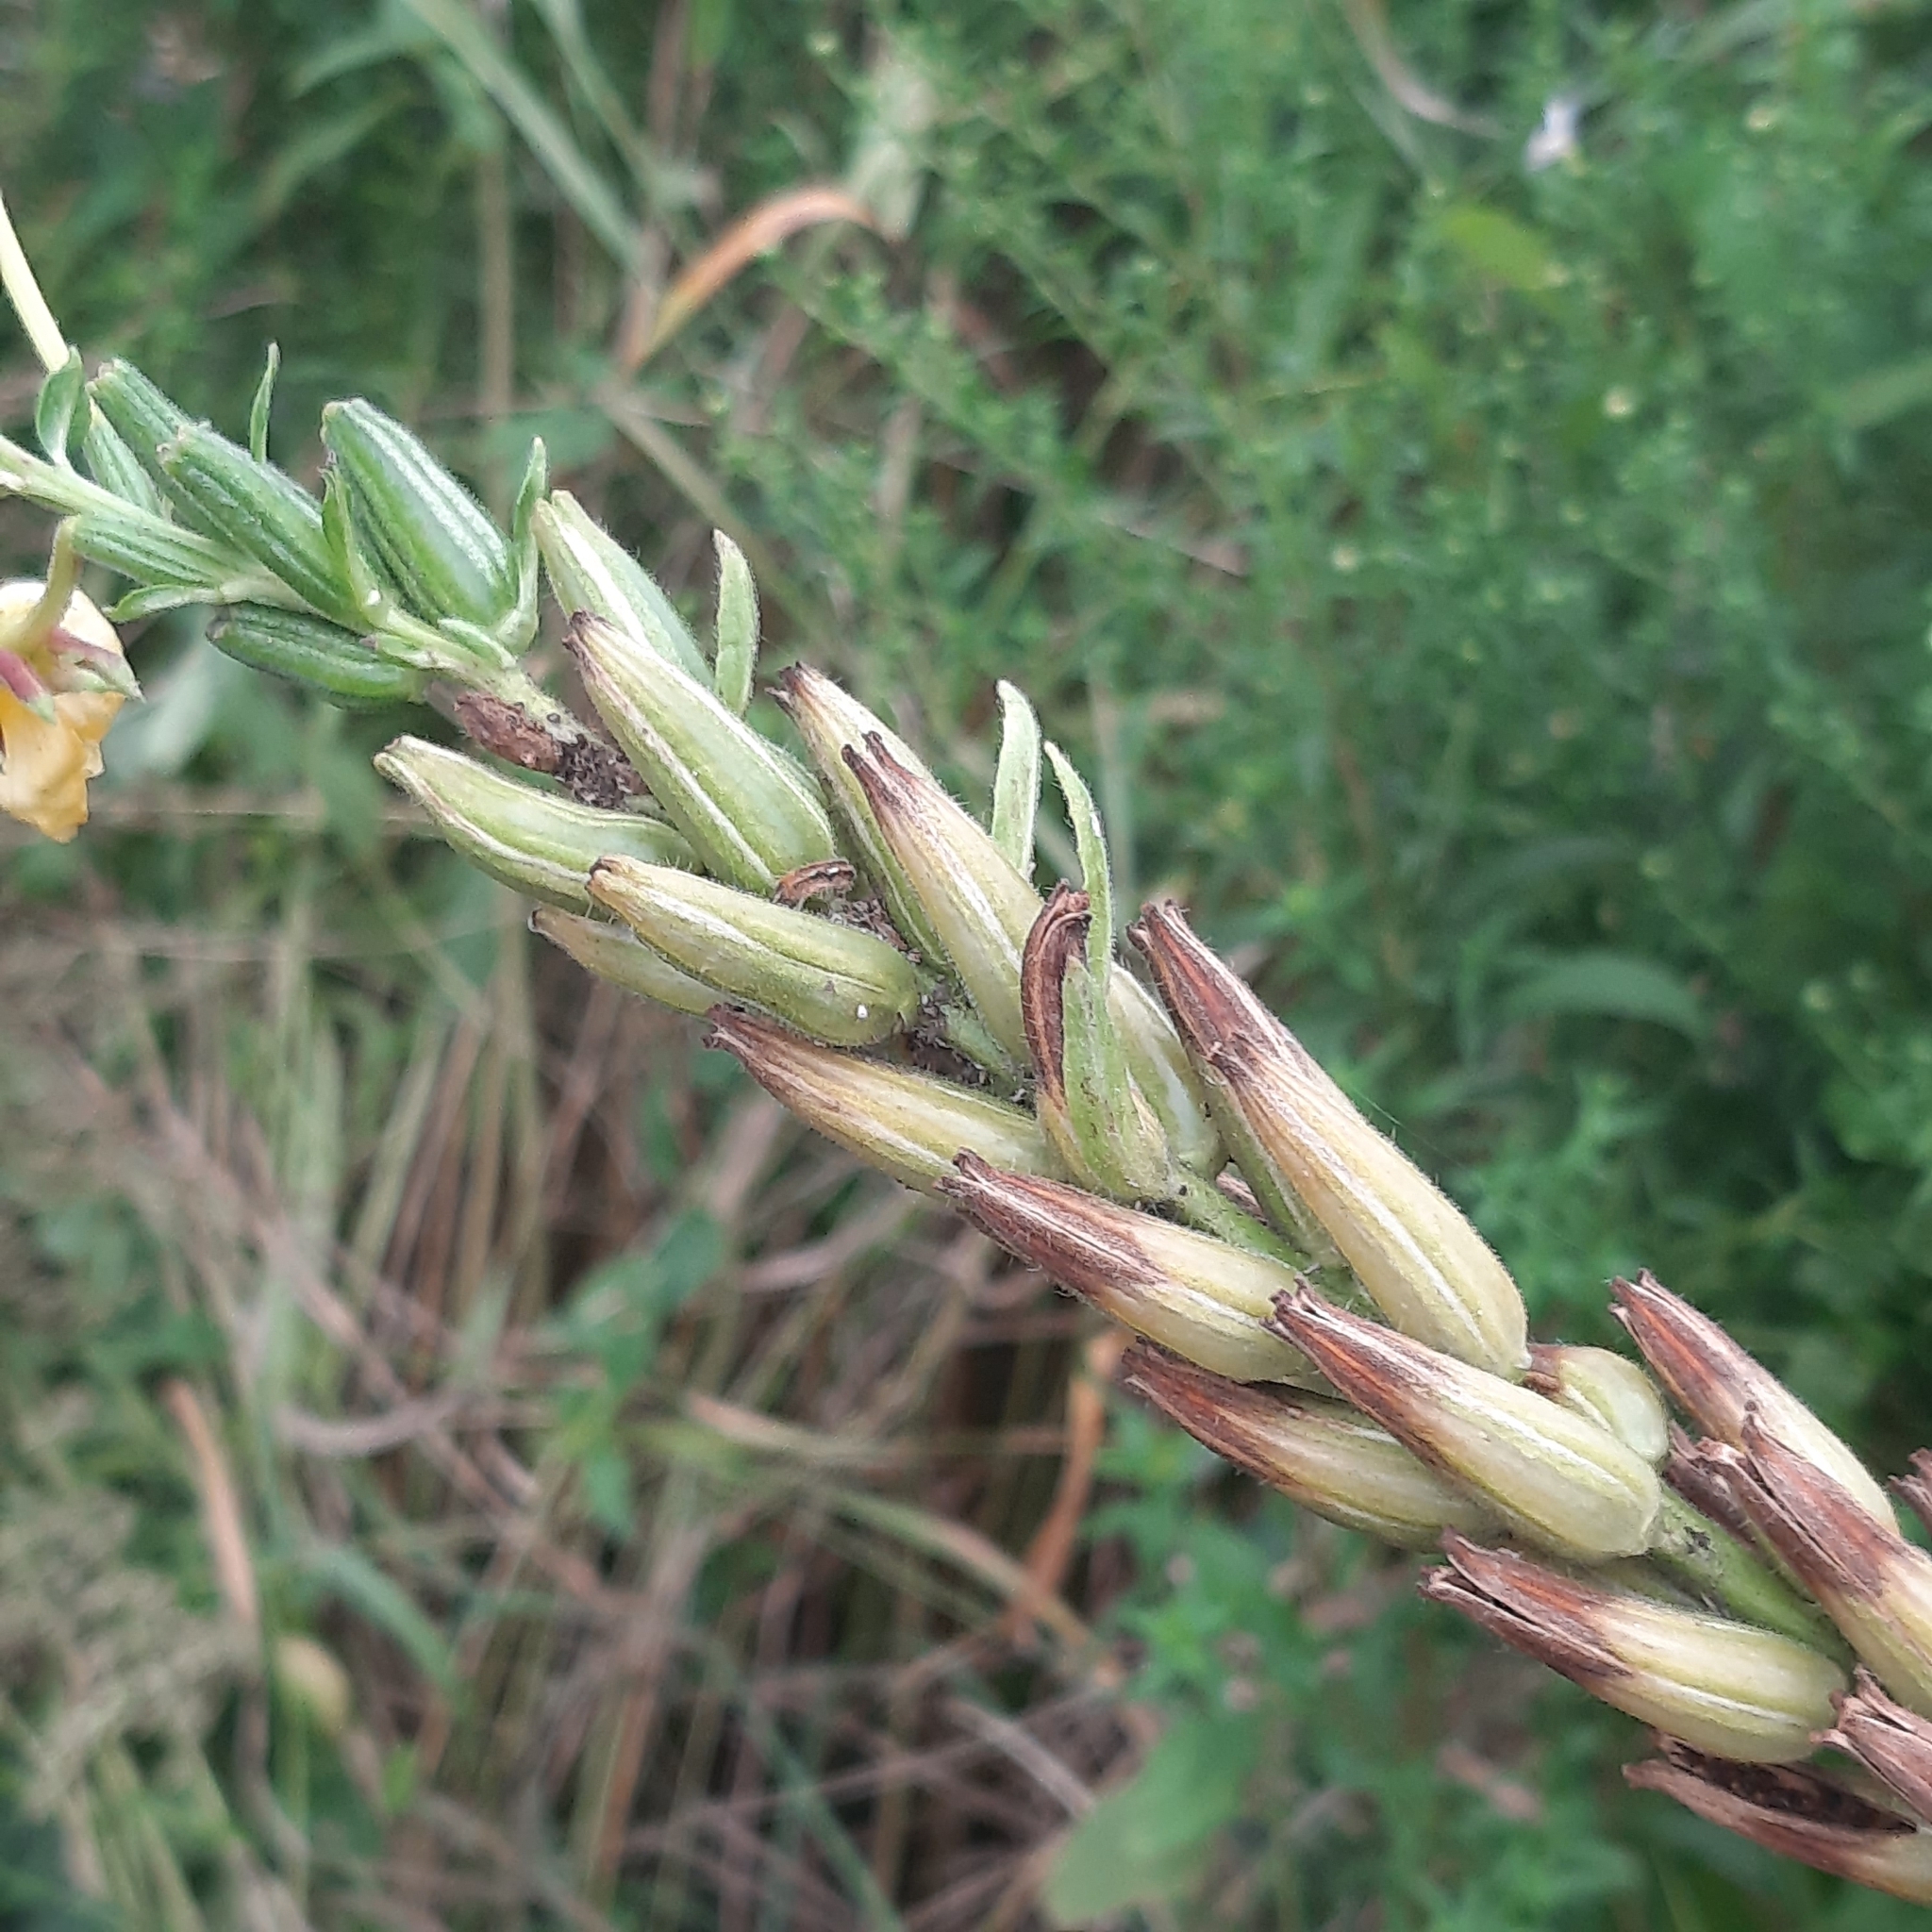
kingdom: Plantae
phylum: Tracheophyta
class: Magnoliopsida
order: Myrtales
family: Onagraceae
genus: Oenothera
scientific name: Oenothera
